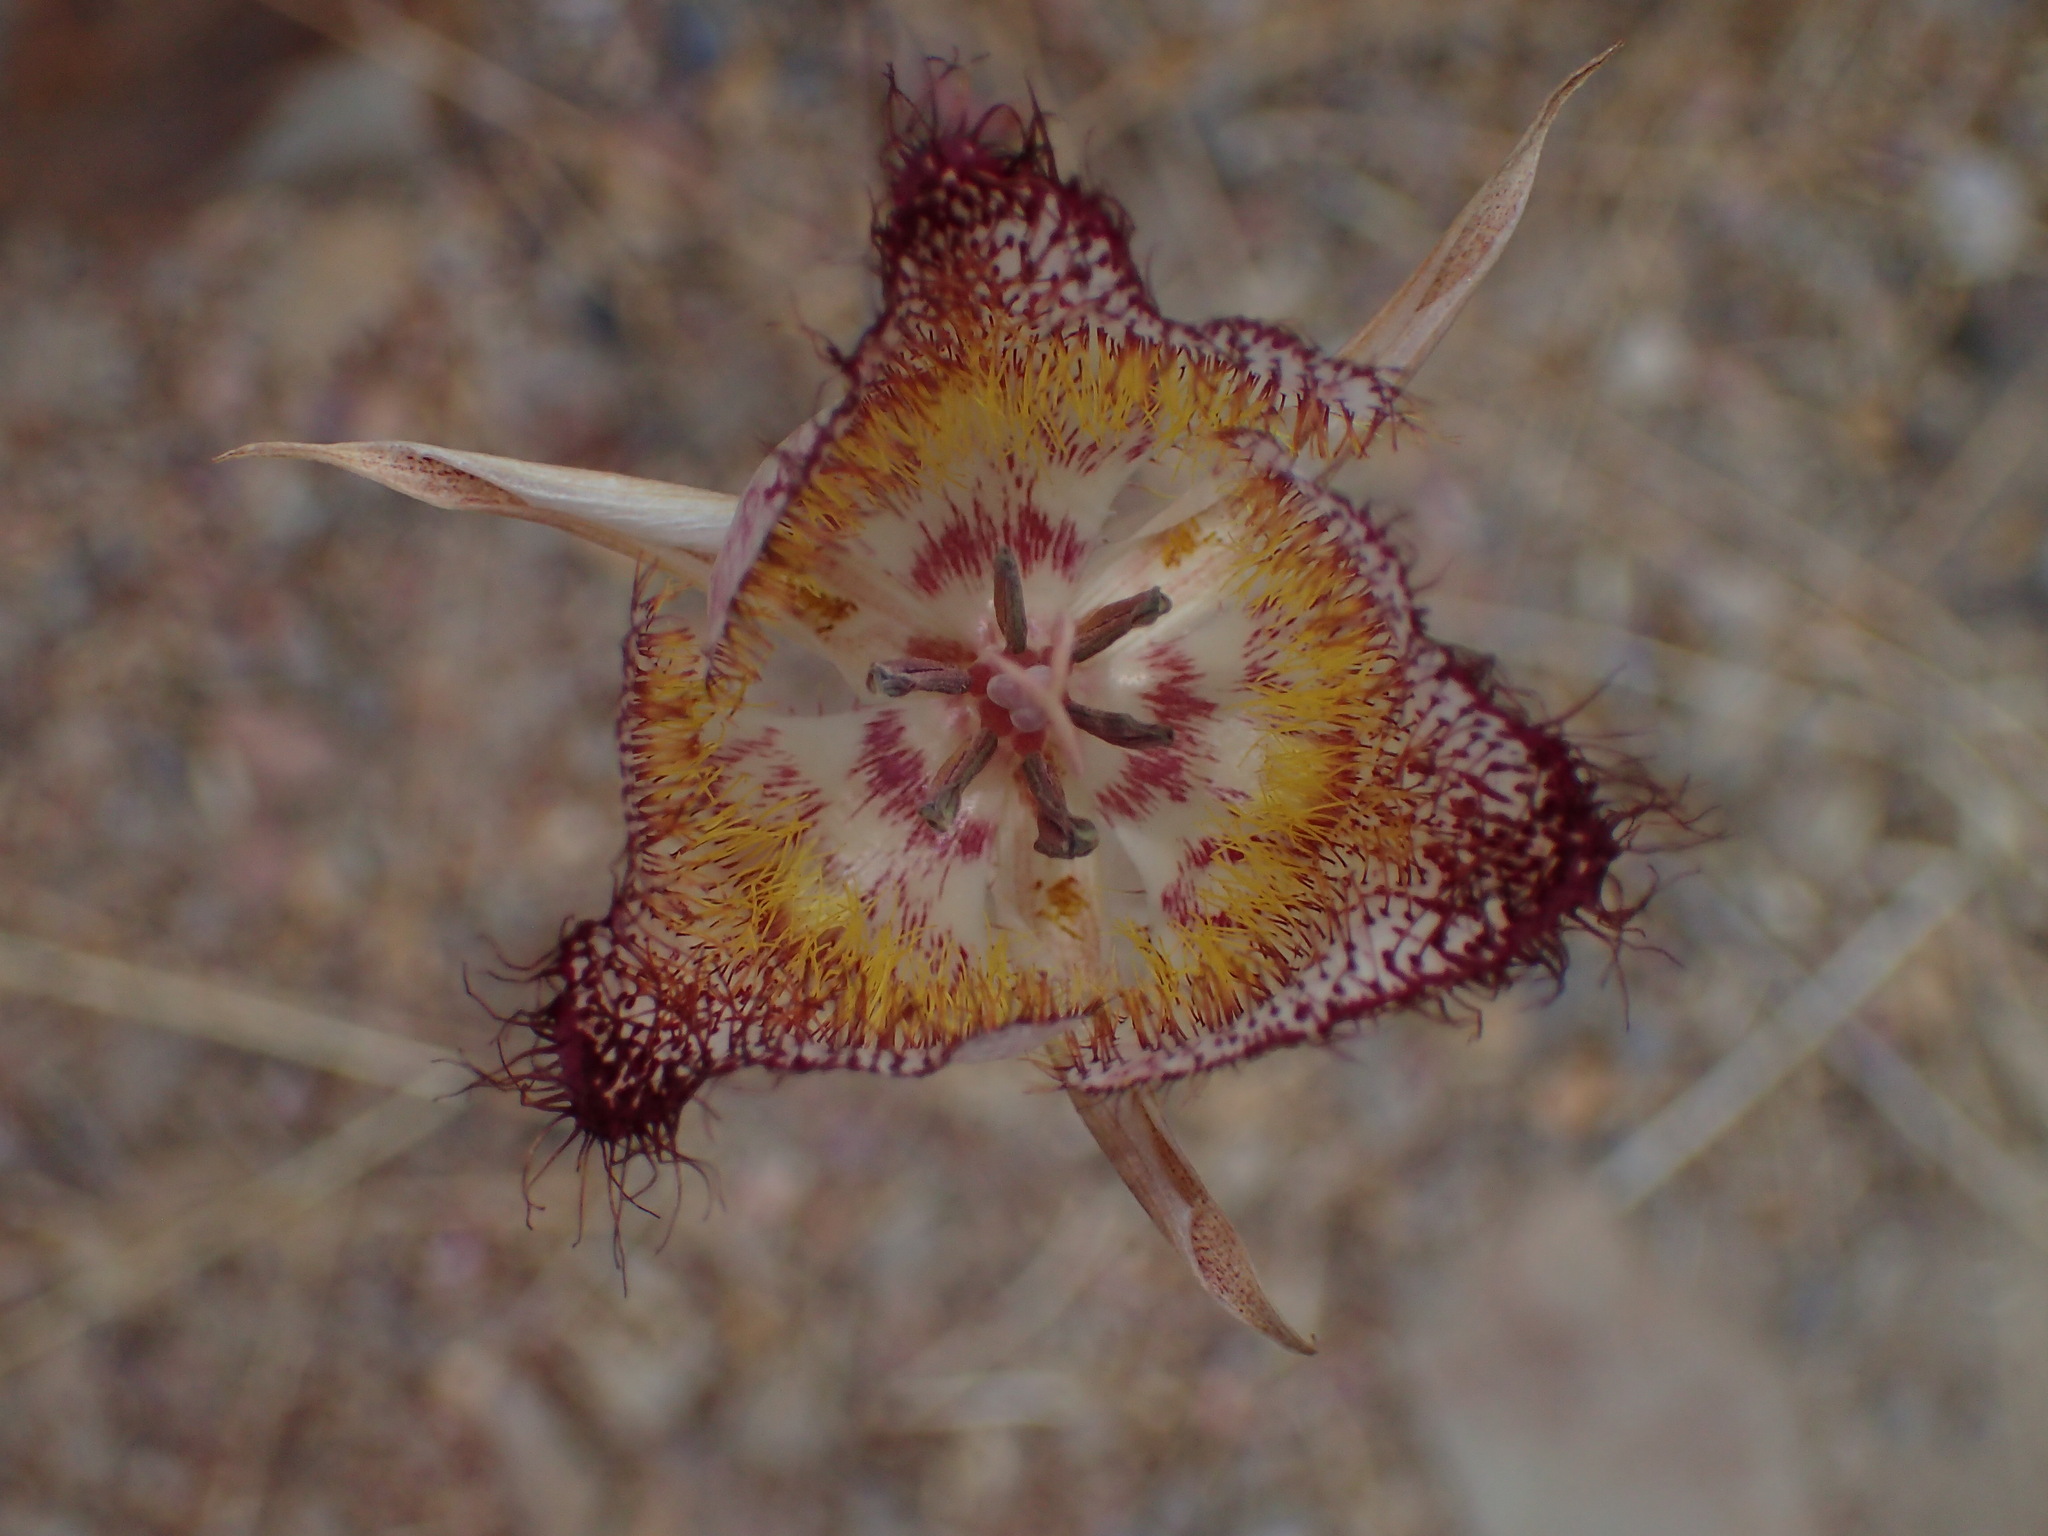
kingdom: Plantae
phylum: Tracheophyta
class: Liliopsida
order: Liliales
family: Liliaceae
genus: Calochortus
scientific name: Calochortus fimbriatus
